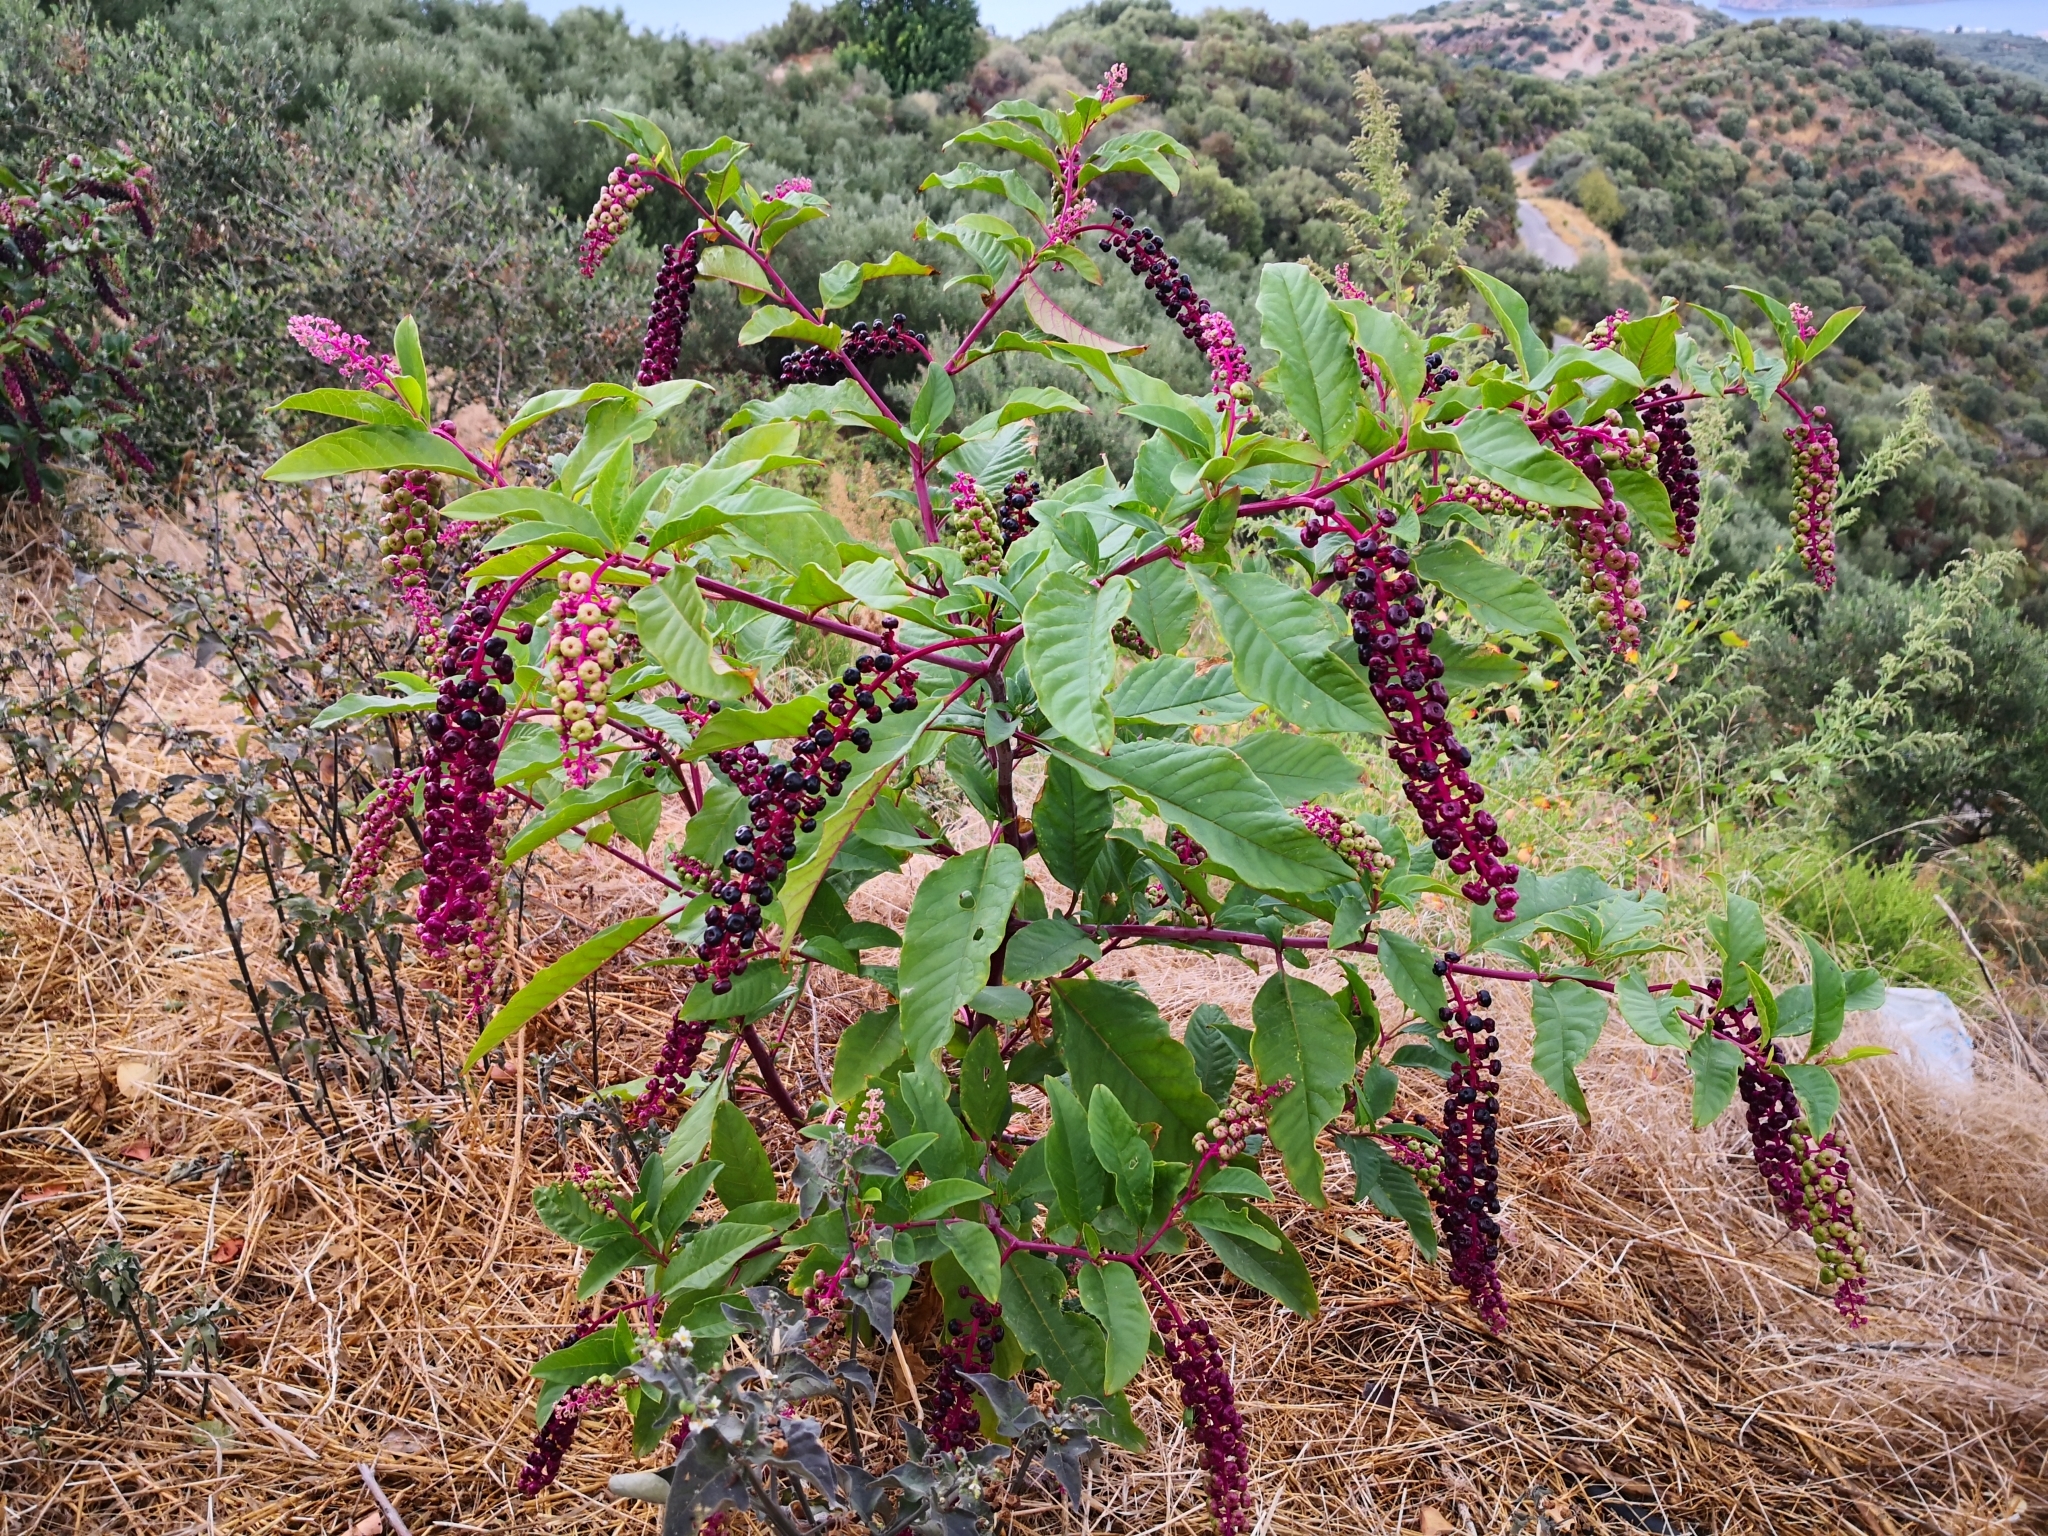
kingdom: Plantae
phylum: Tracheophyta
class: Magnoliopsida
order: Caryophyllales
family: Phytolaccaceae
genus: Phytolacca
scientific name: Phytolacca americana
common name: American pokeweed
